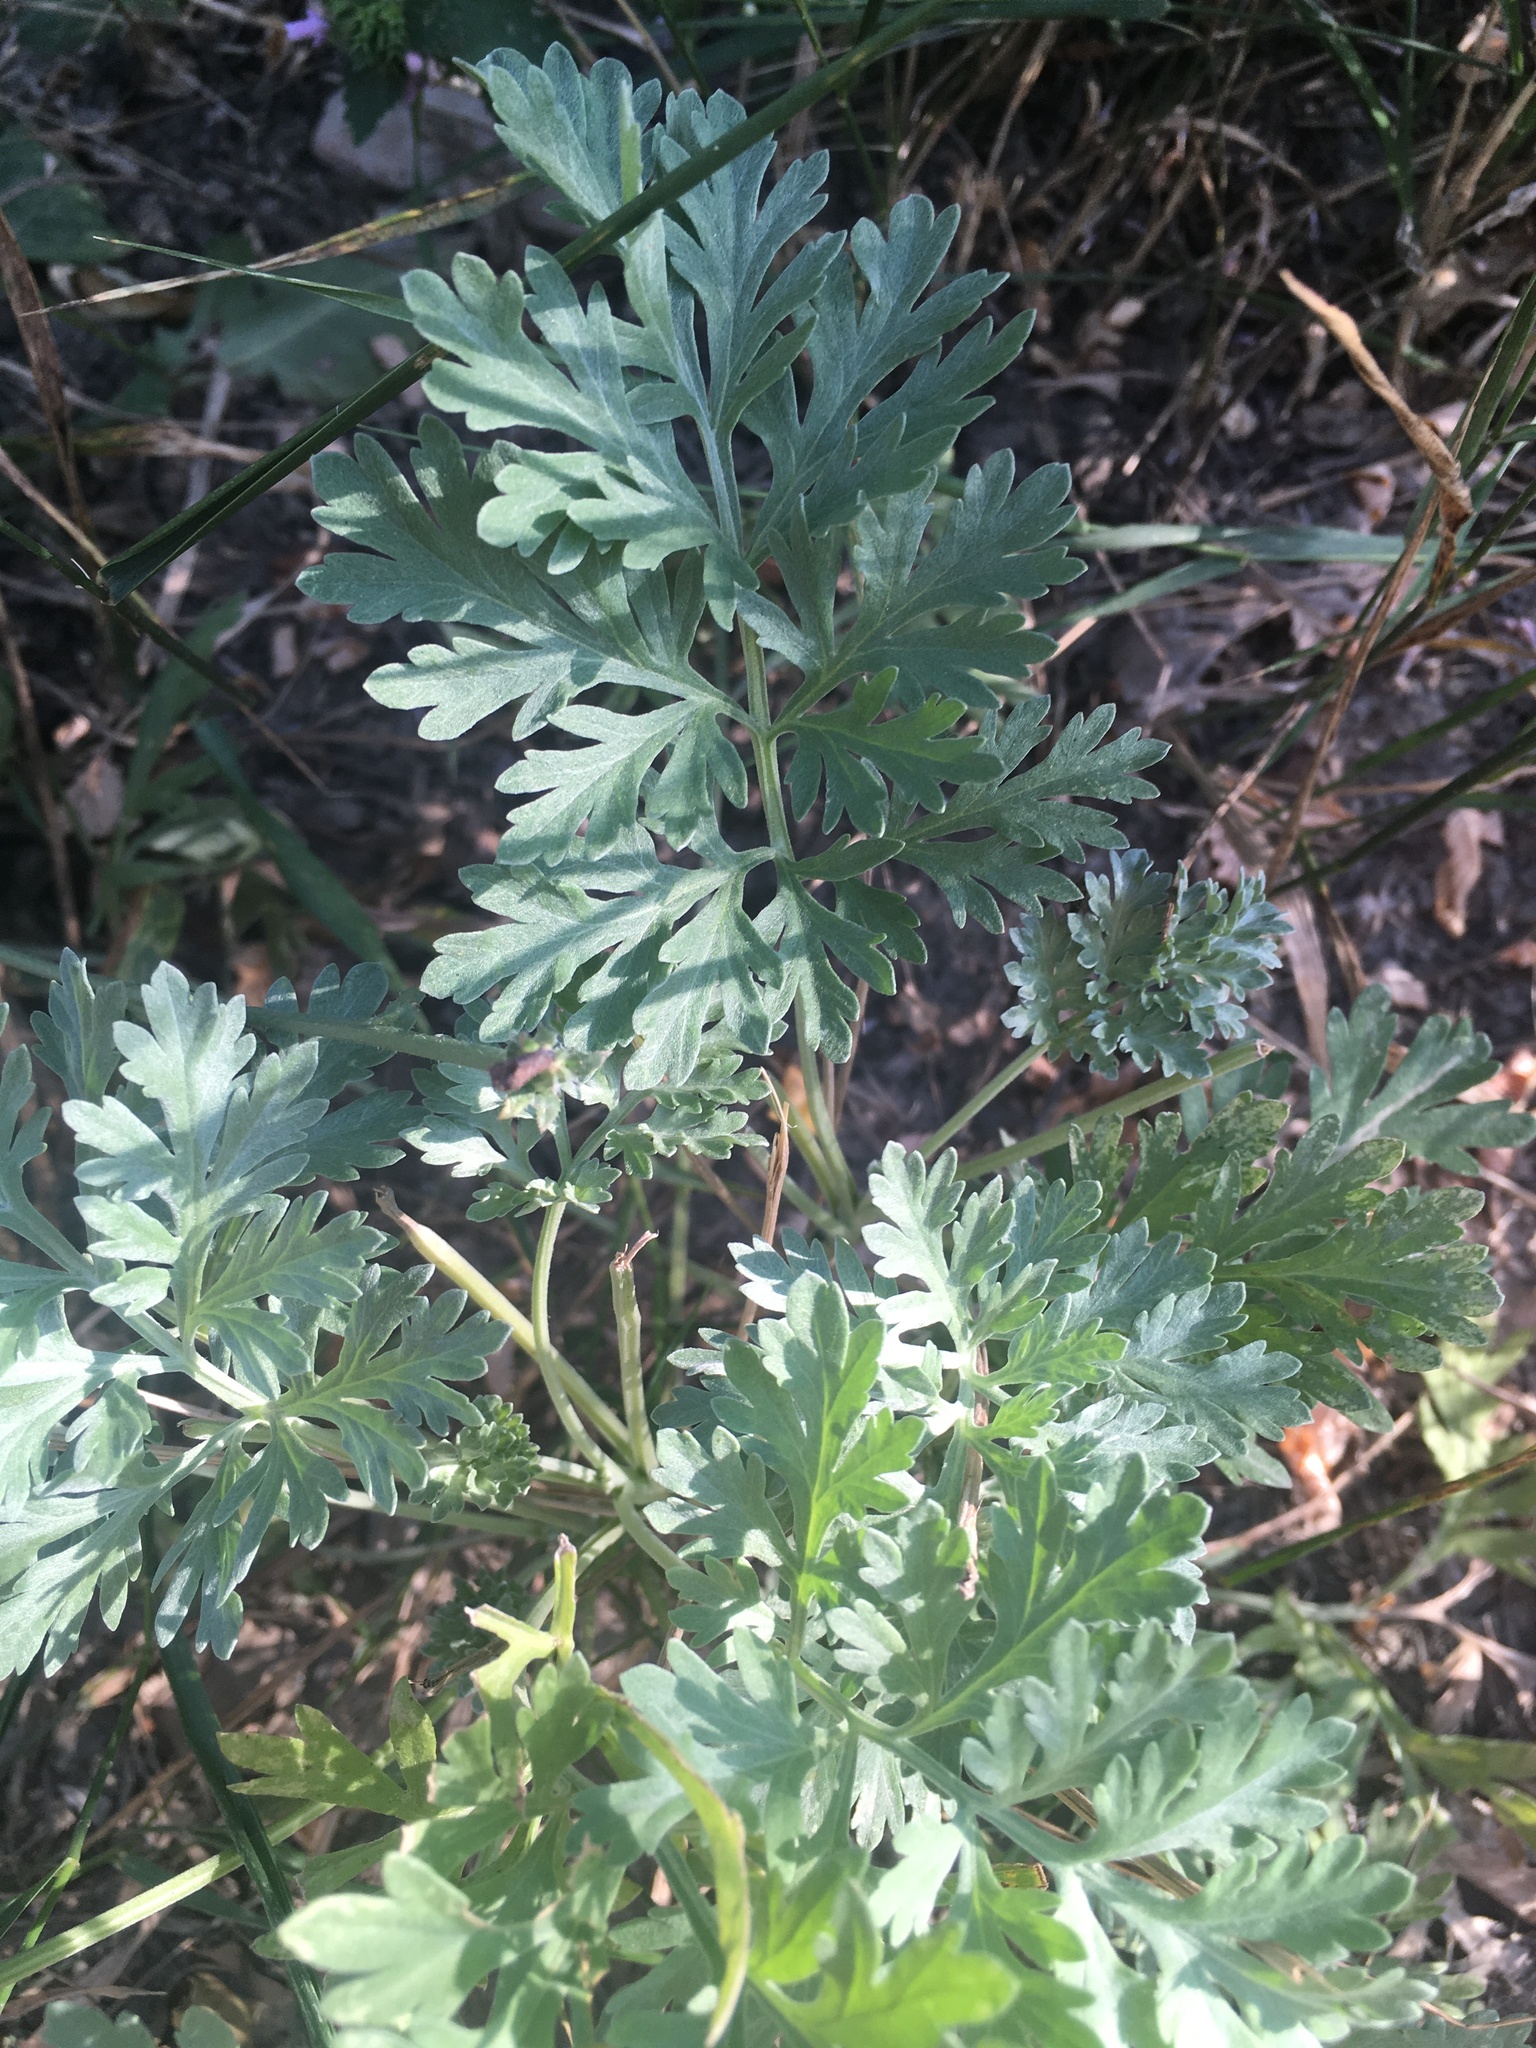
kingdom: Plantae
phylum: Tracheophyta
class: Magnoliopsida
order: Asterales
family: Asteraceae
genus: Artemisia
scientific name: Artemisia absinthium
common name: Wormwood
